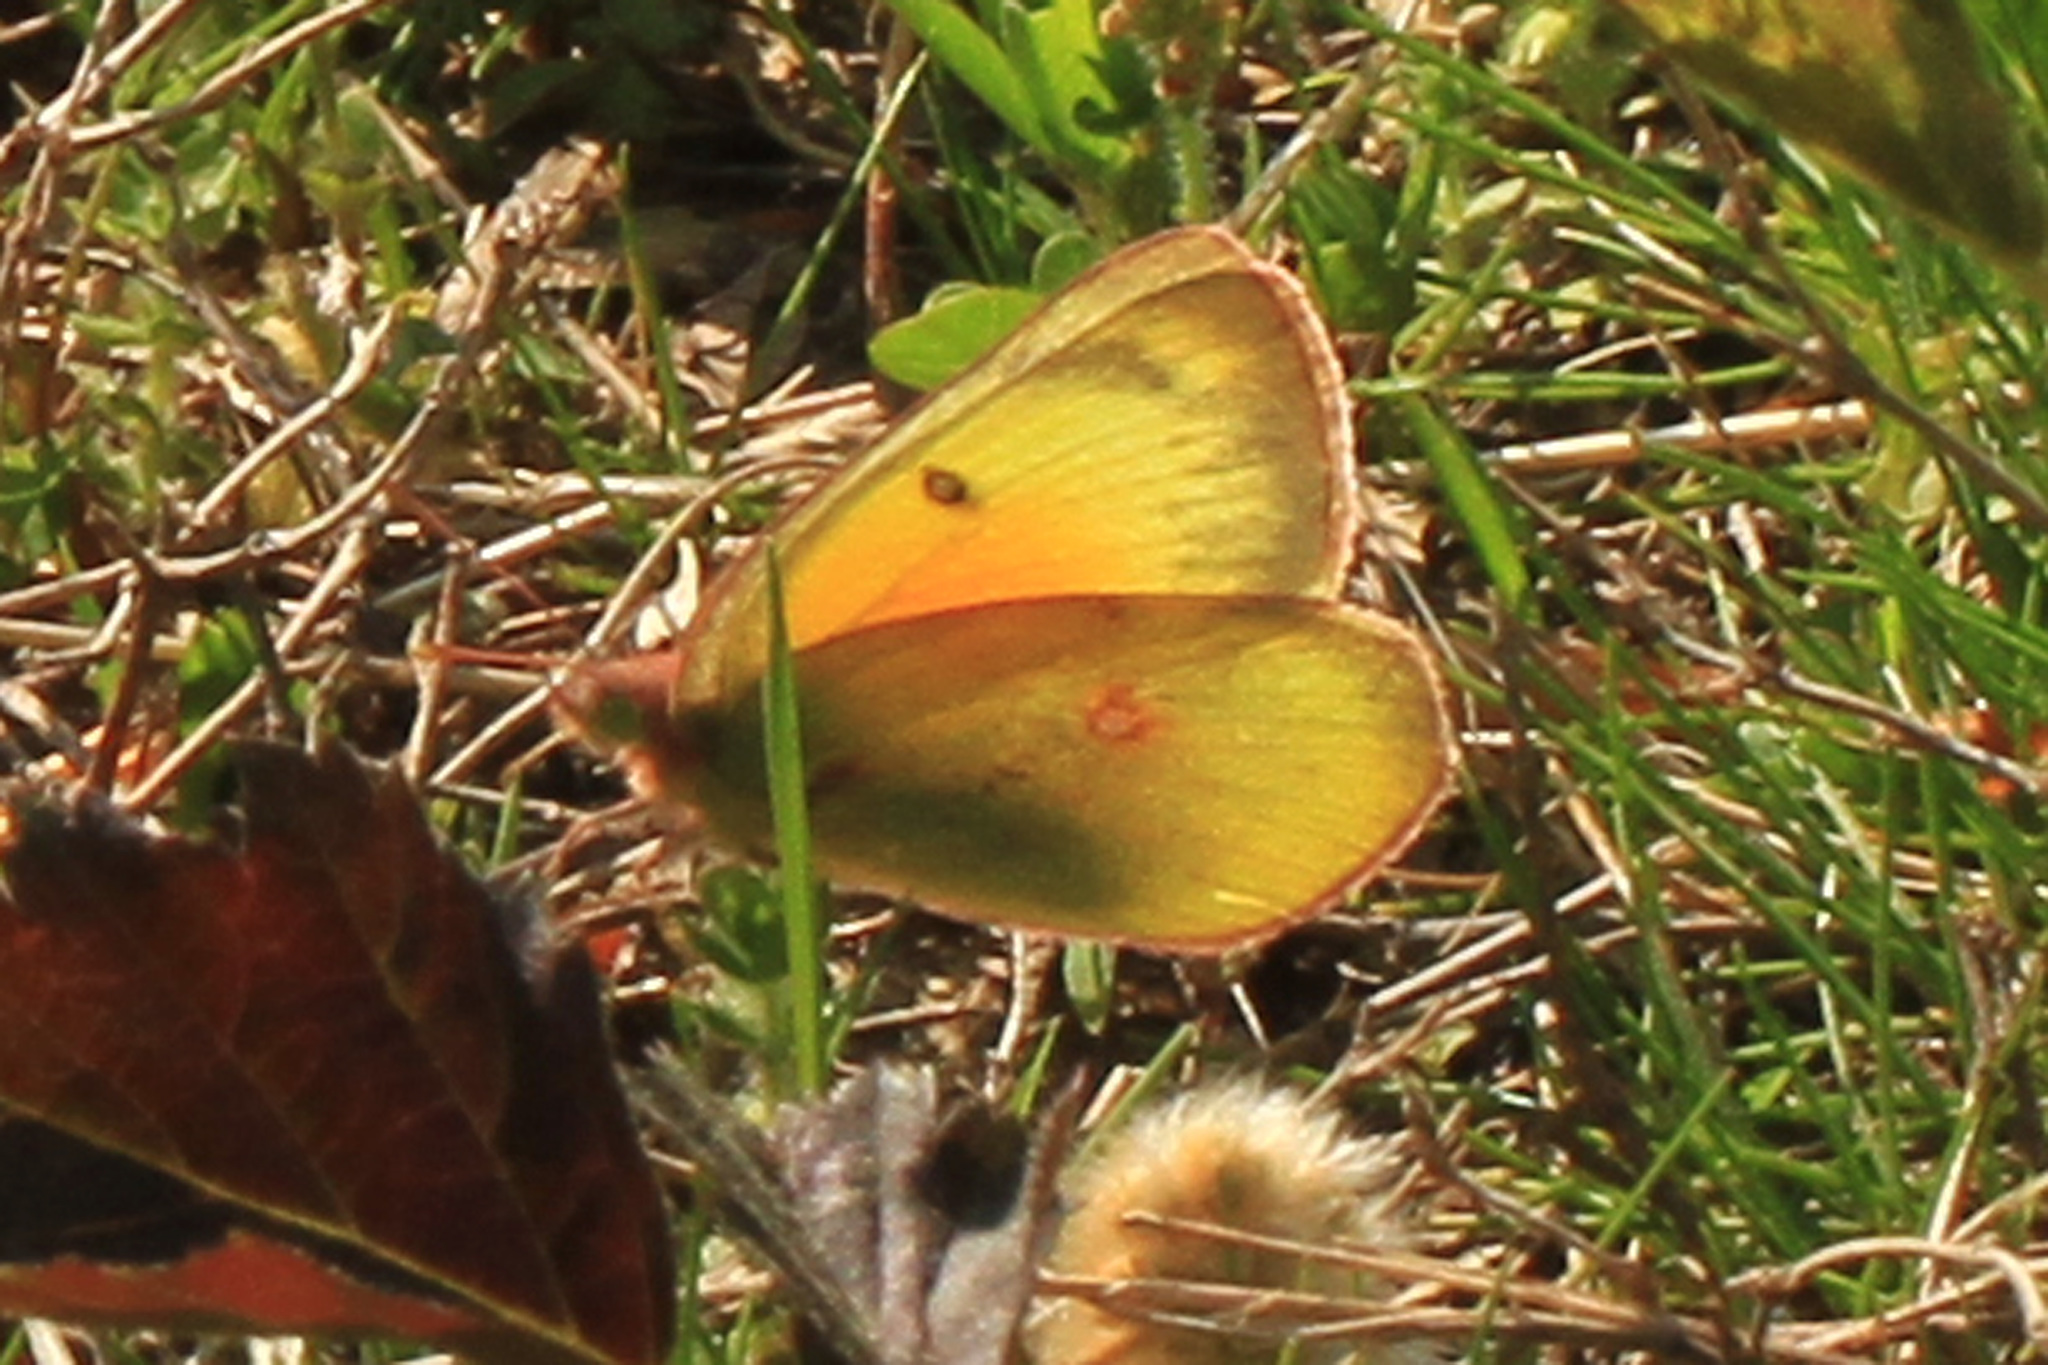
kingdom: Animalia
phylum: Arthropoda
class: Insecta
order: Lepidoptera
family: Pieridae
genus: Colias
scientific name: Colias eurytheme
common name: Alfalfa butterfly
